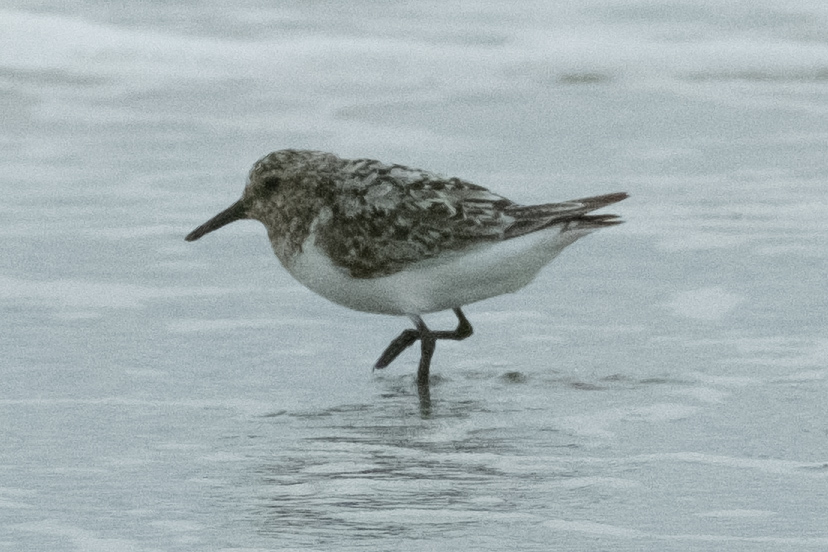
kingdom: Animalia
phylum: Chordata
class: Aves
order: Charadriiformes
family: Scolopacidae
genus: Calidris
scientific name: Calidris alba
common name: Sanderling
